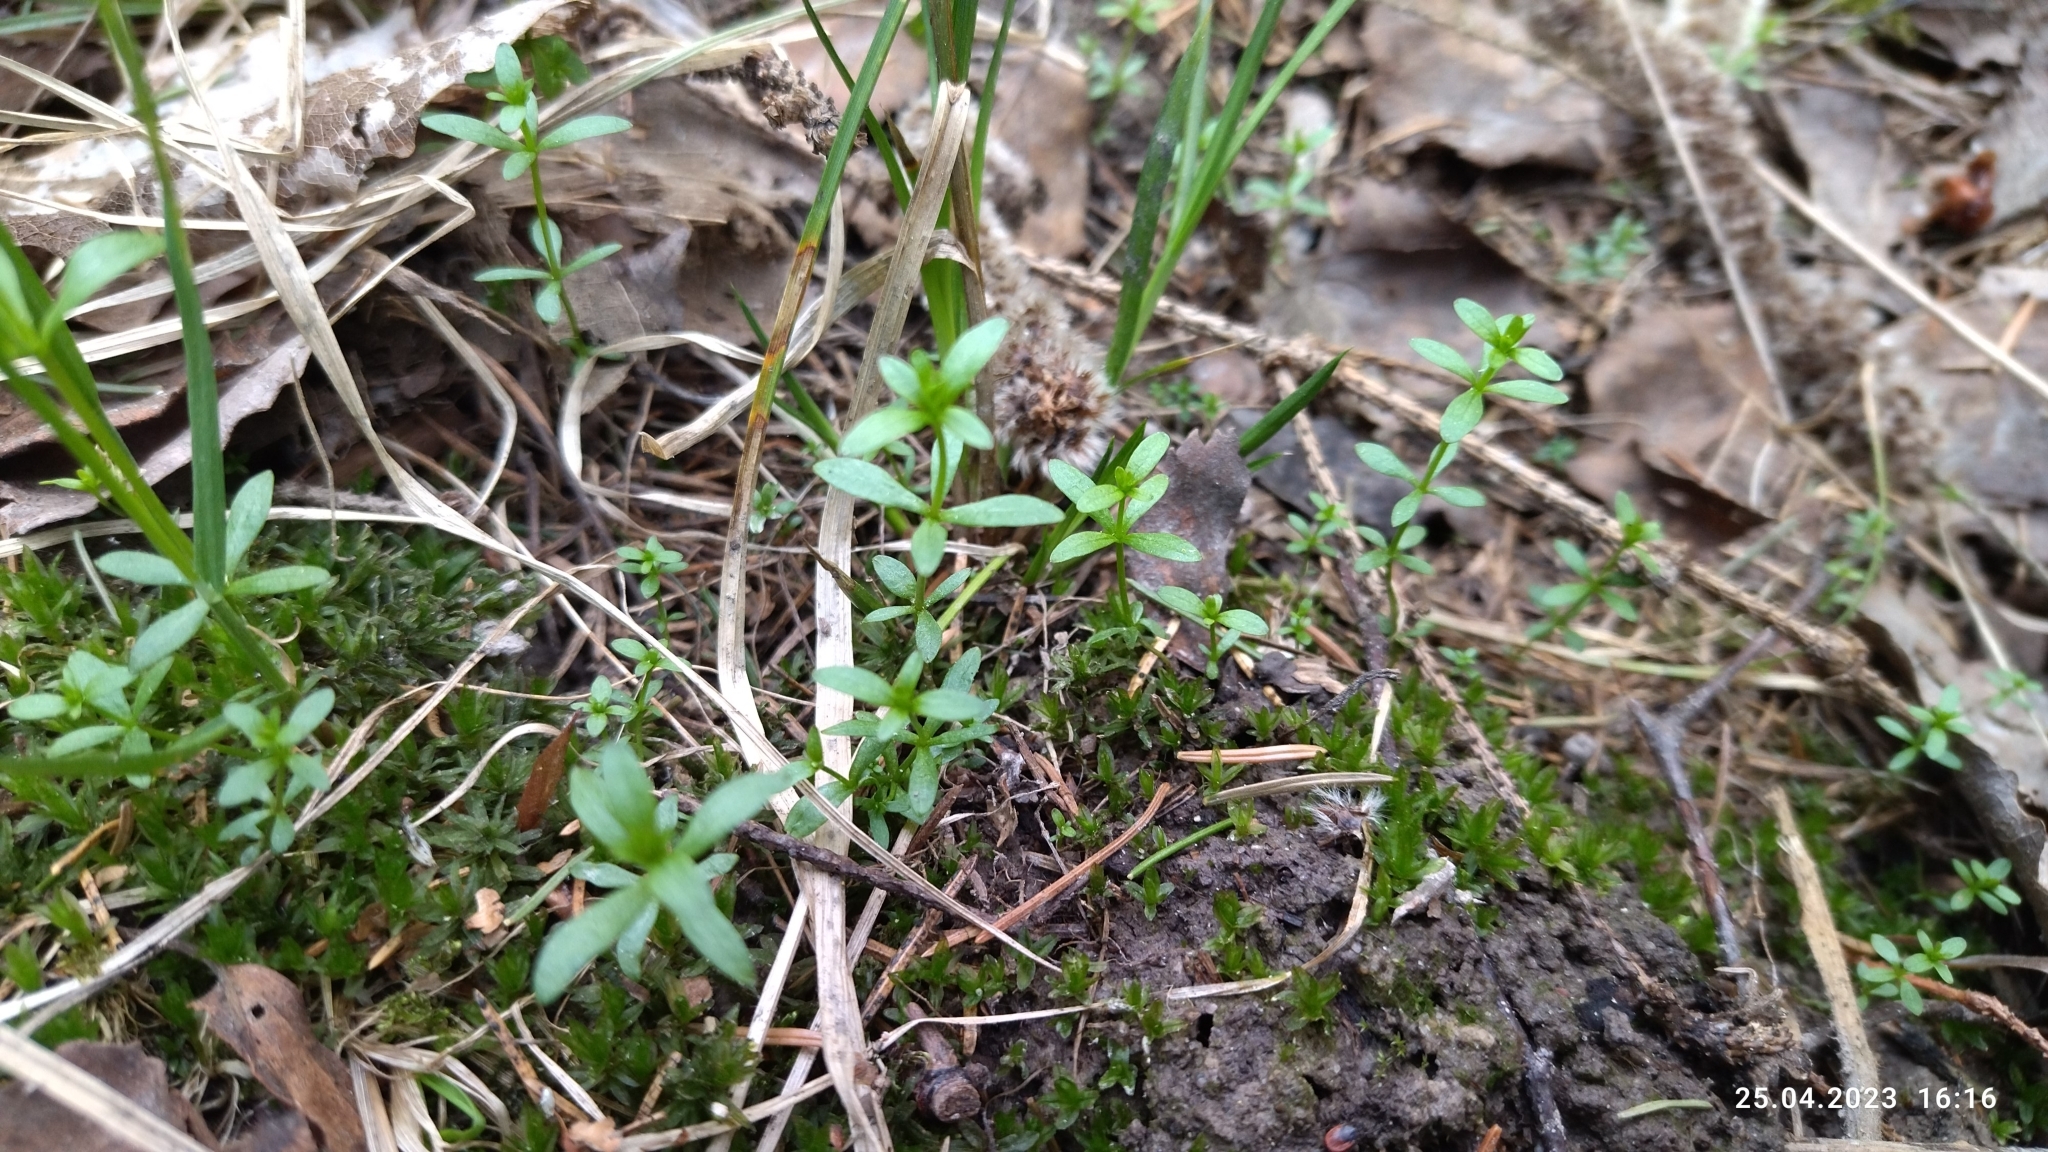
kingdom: Plantae
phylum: Tracheophyta
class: Magnoliopsida
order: Gentianales
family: Rubiaceae
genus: Galium
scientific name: Galium palustre
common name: Common marsh-bedstraw
